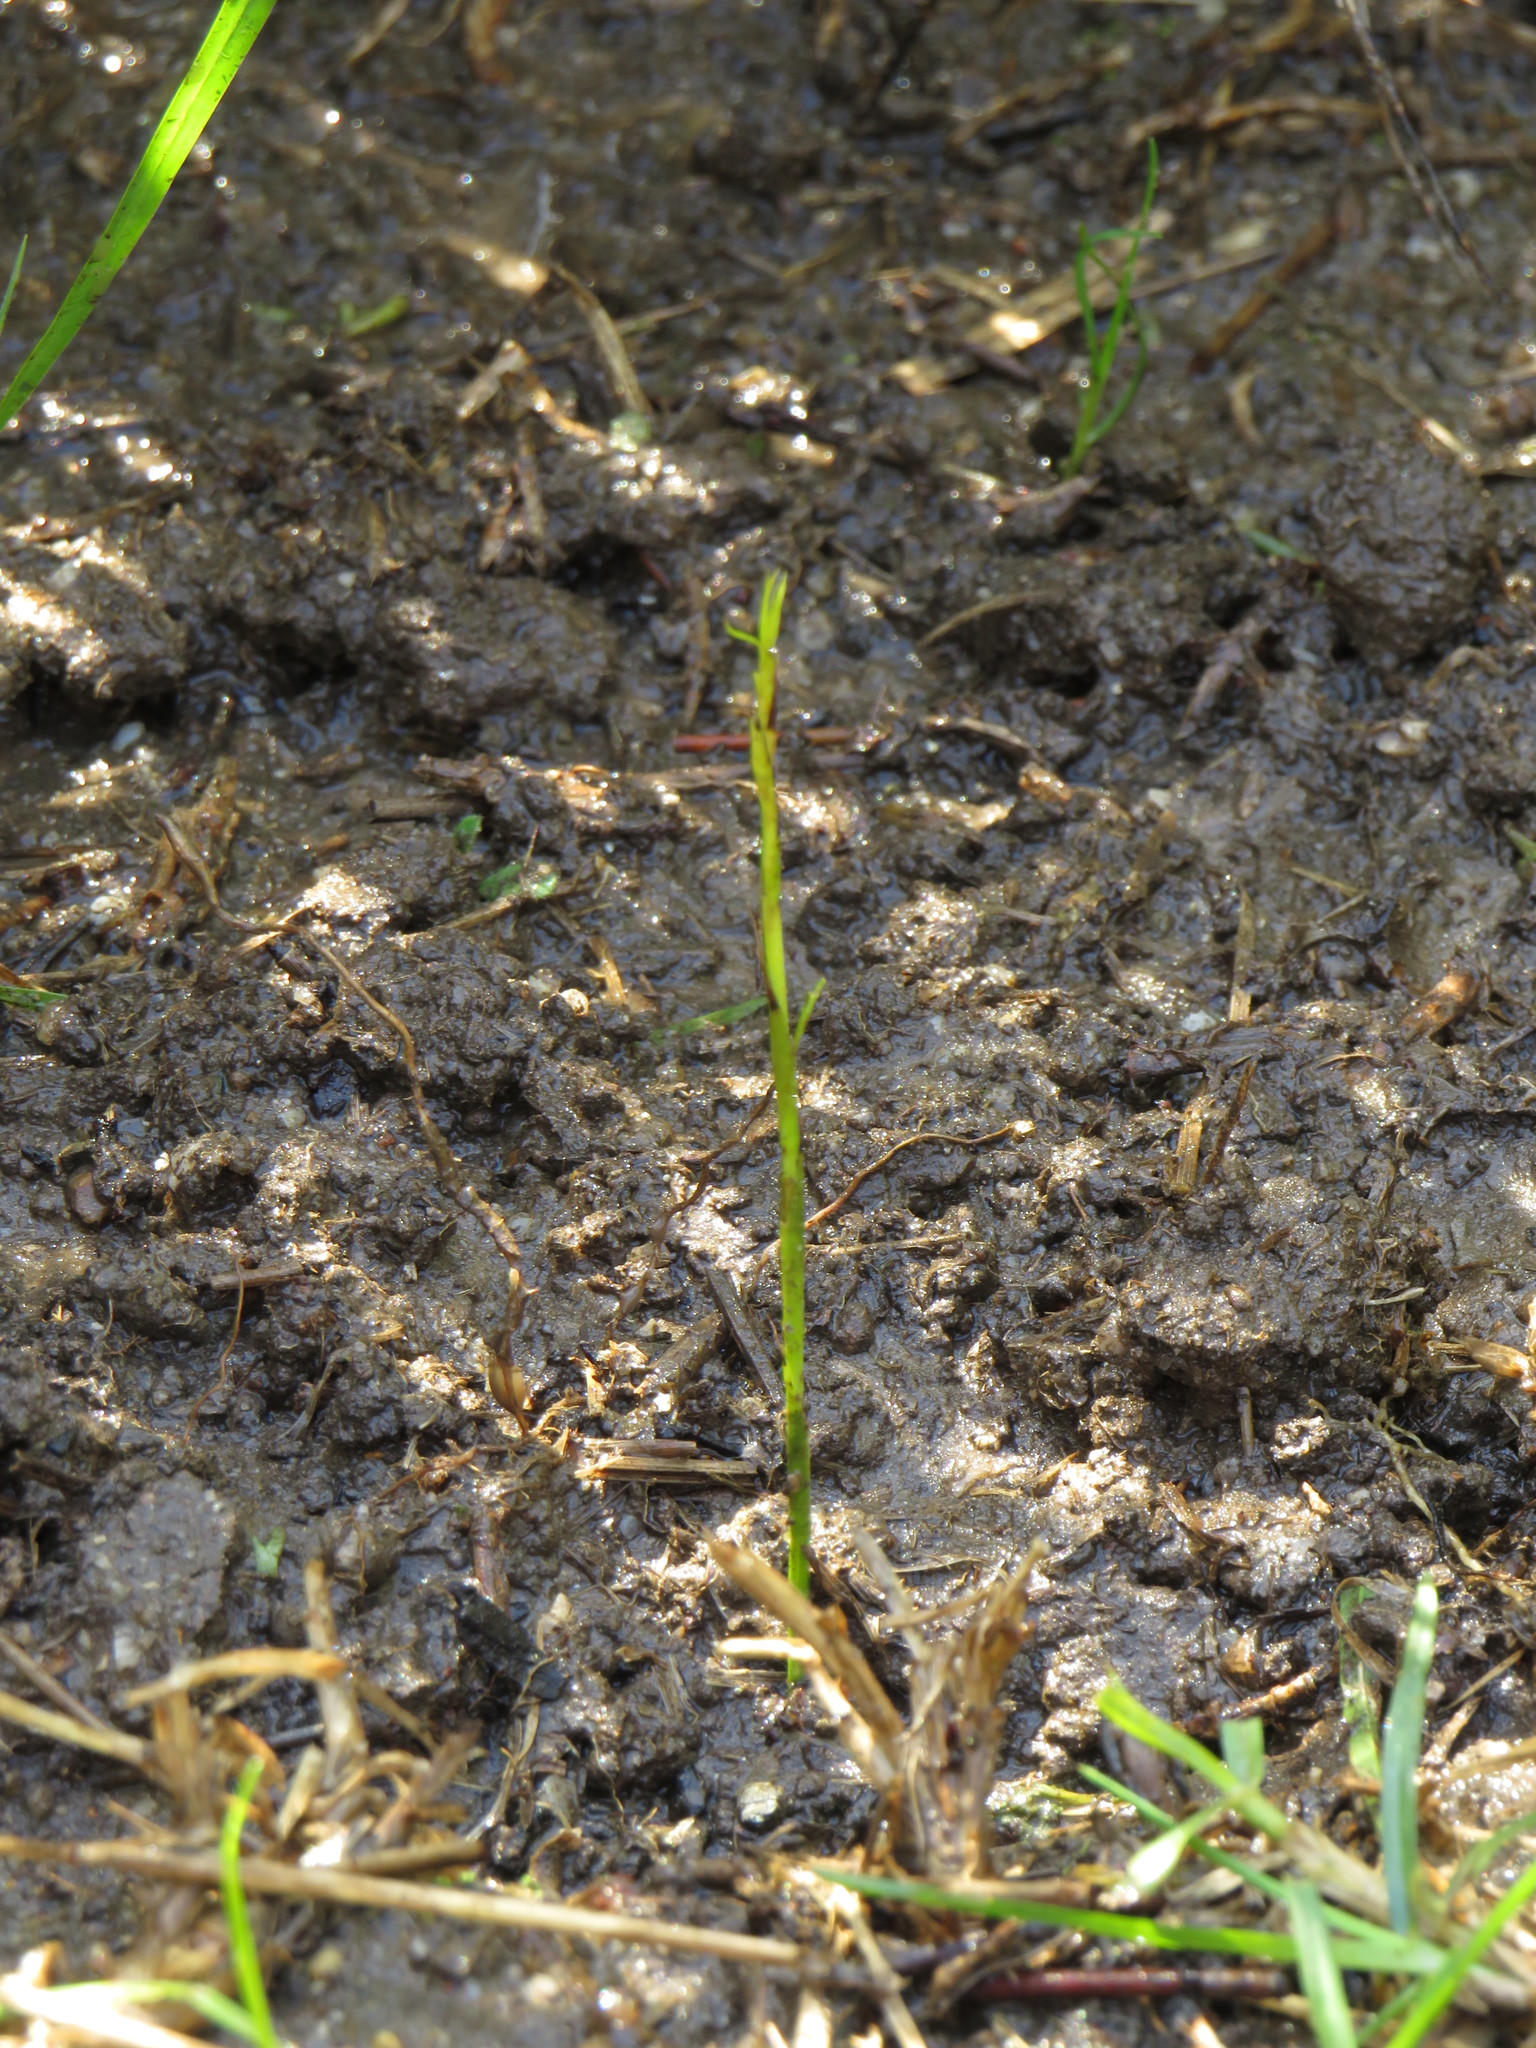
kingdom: Plantae
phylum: Tracheophyta
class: Magnoliopsida
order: Fabales
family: Fabaceae
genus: Psoralea
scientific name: Psoralea fascicularis
